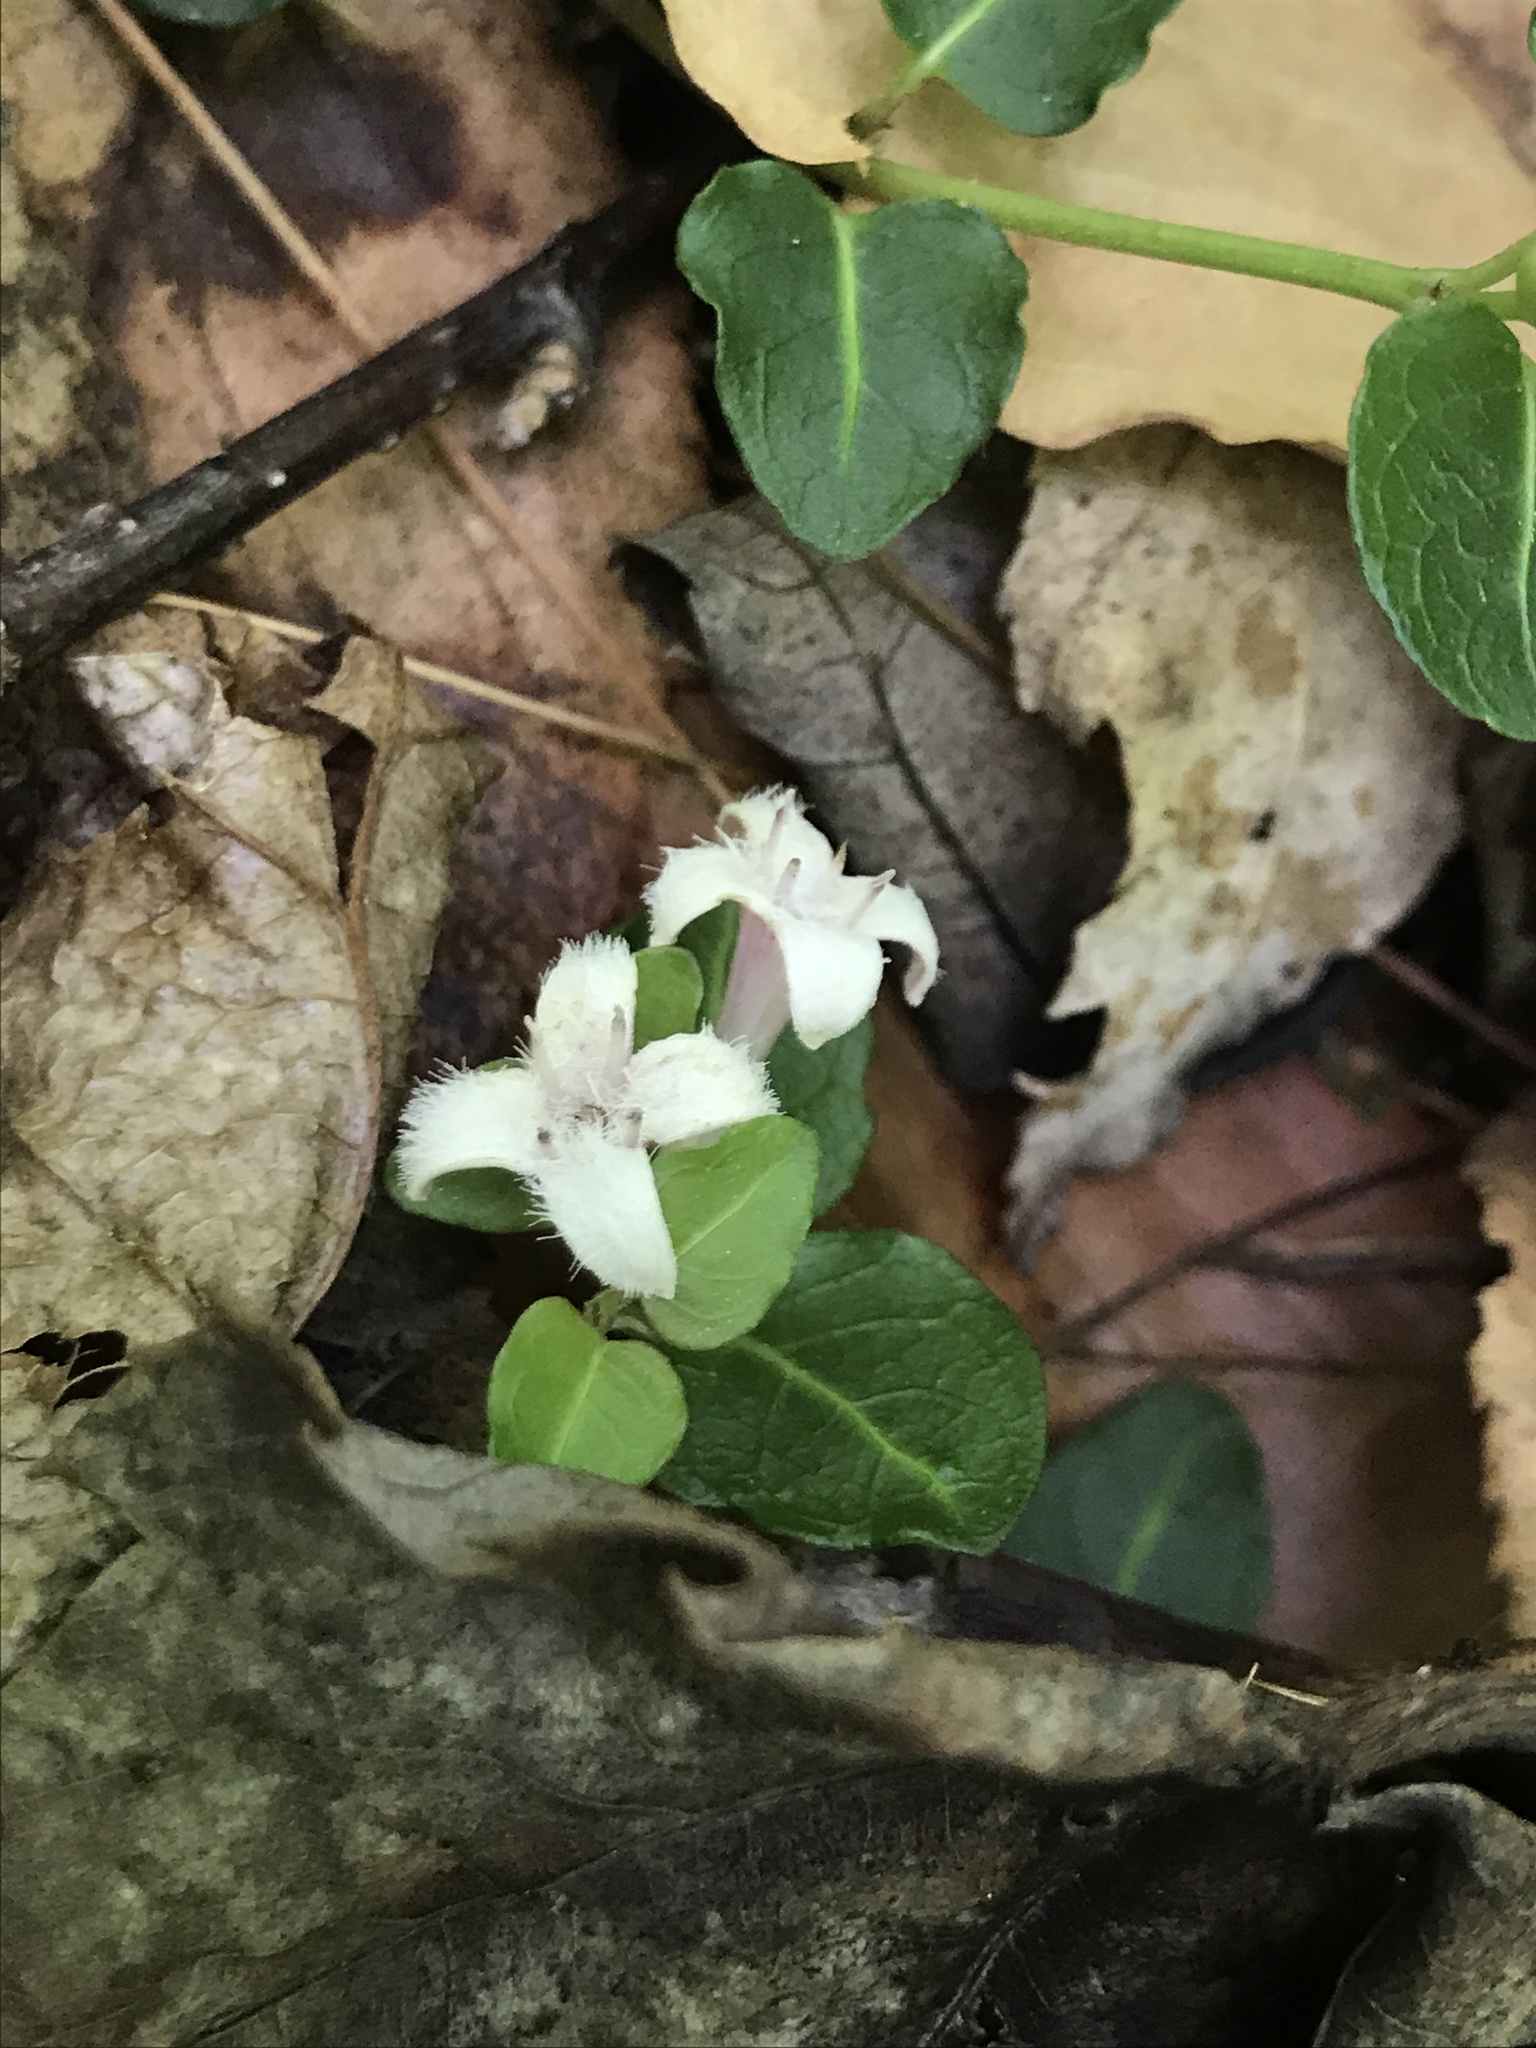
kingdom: Plantae
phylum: Tracheophyta
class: Magnoliopsida
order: Gentianales
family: Rubiaceae
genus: Mitchella
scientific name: Mitchella repens
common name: Partridge-berry
